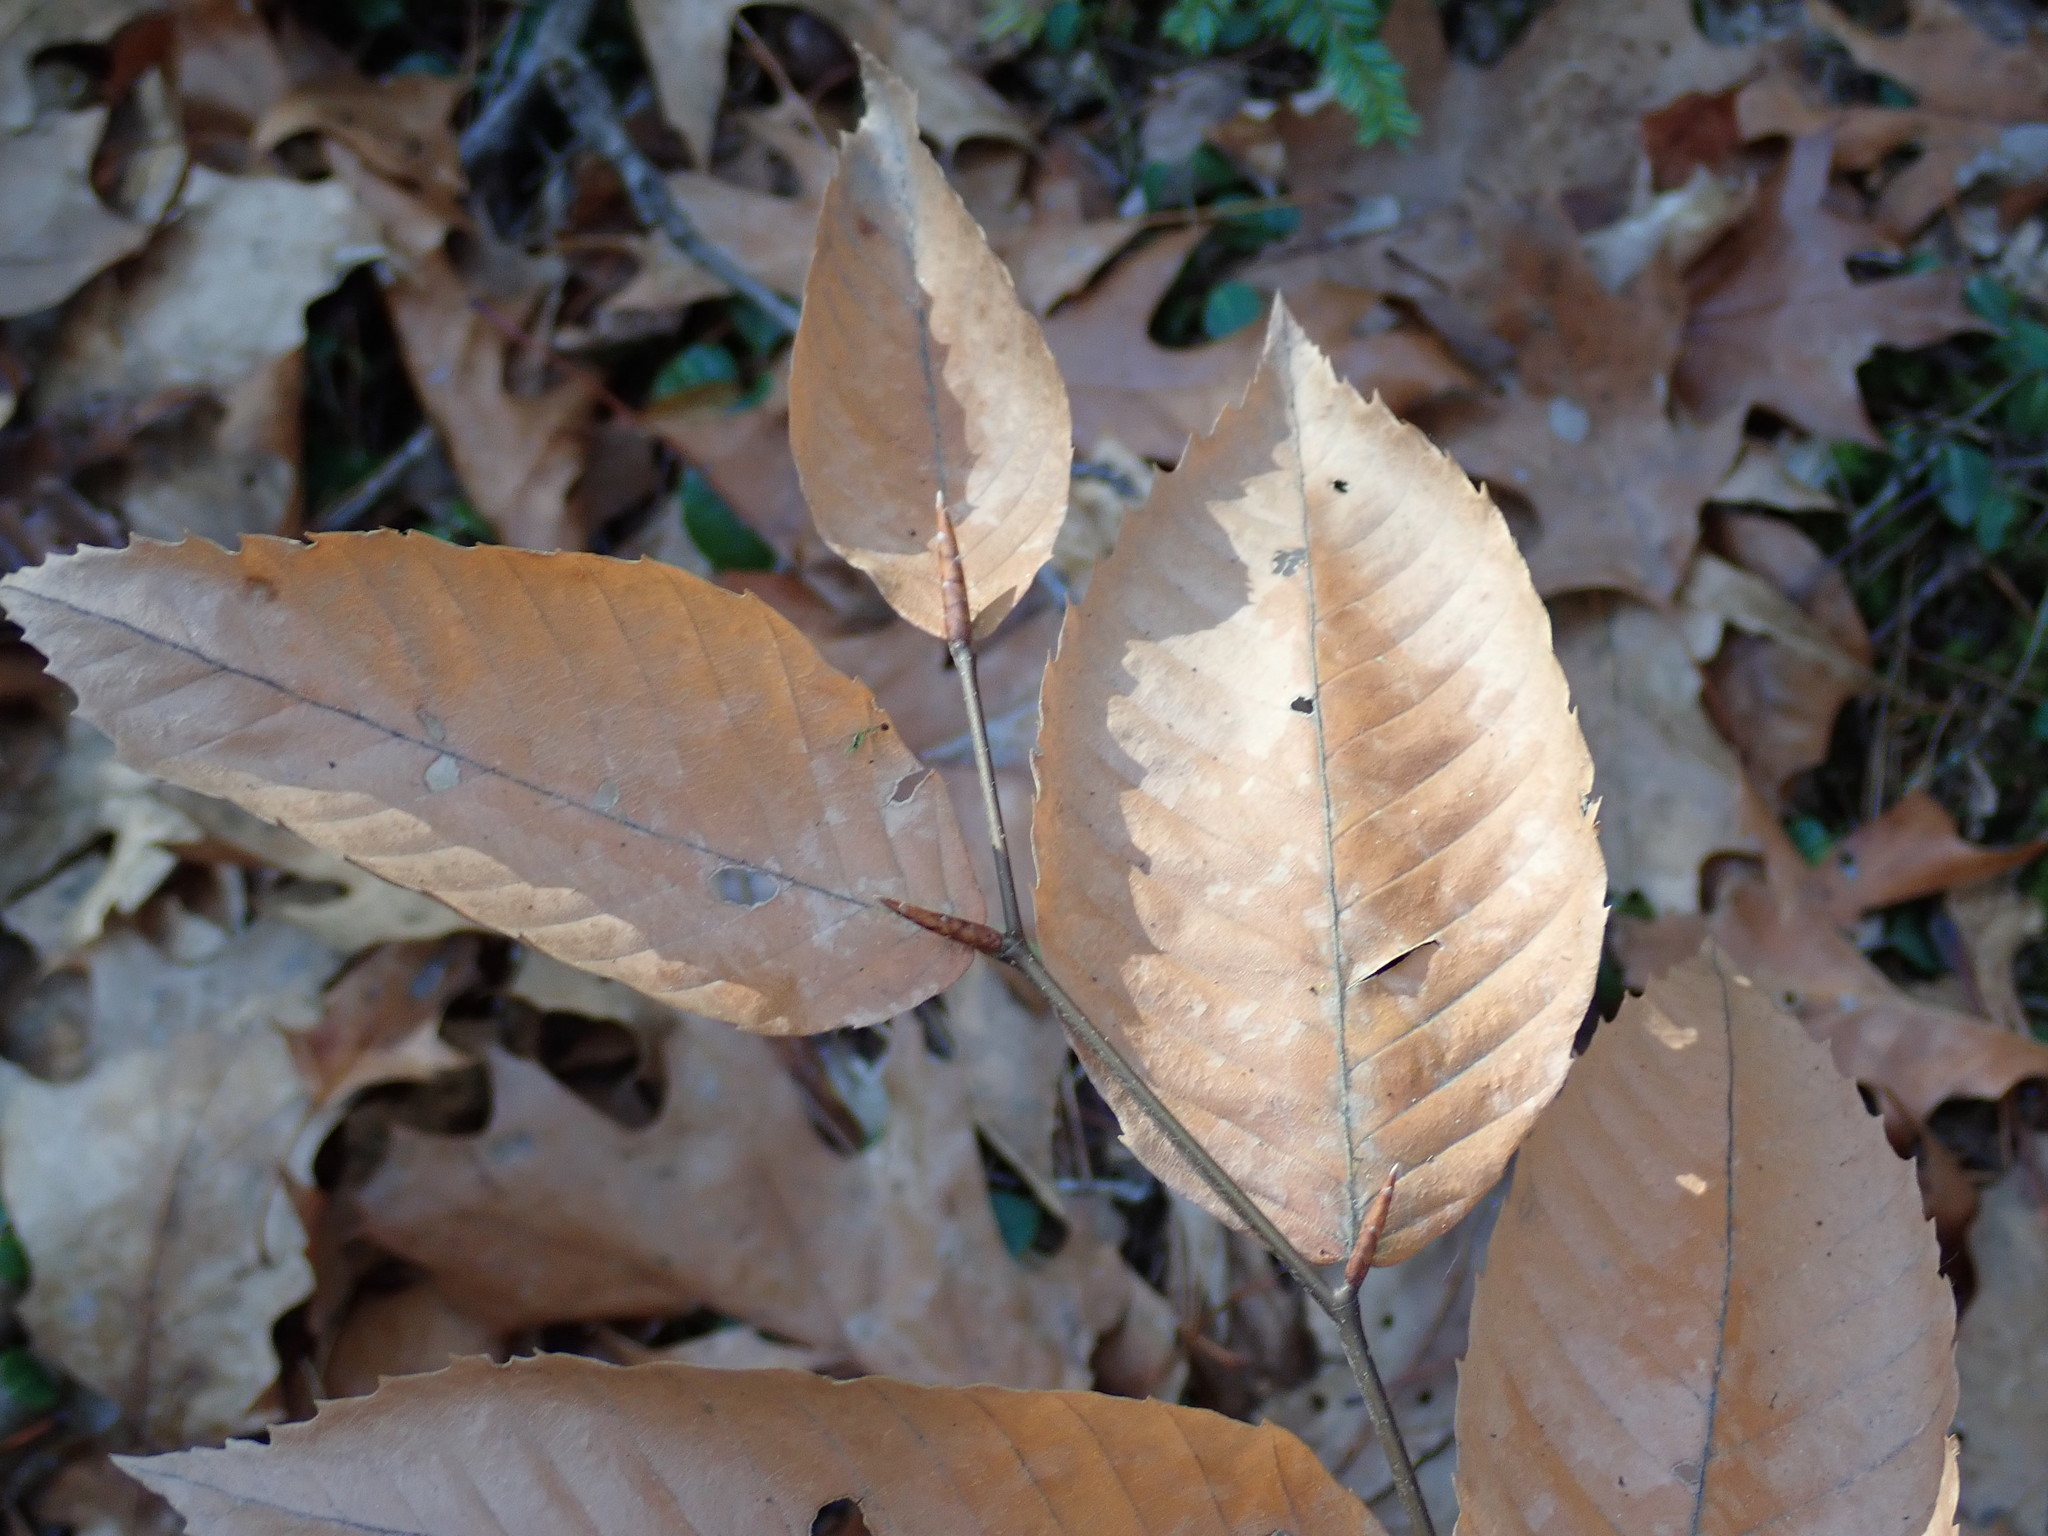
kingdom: Plantae
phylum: Tracheophyta
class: Magnoliopsida
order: Fagales
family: Fagaceae
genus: Fagus
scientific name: Fagus grandifolia
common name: American beech
